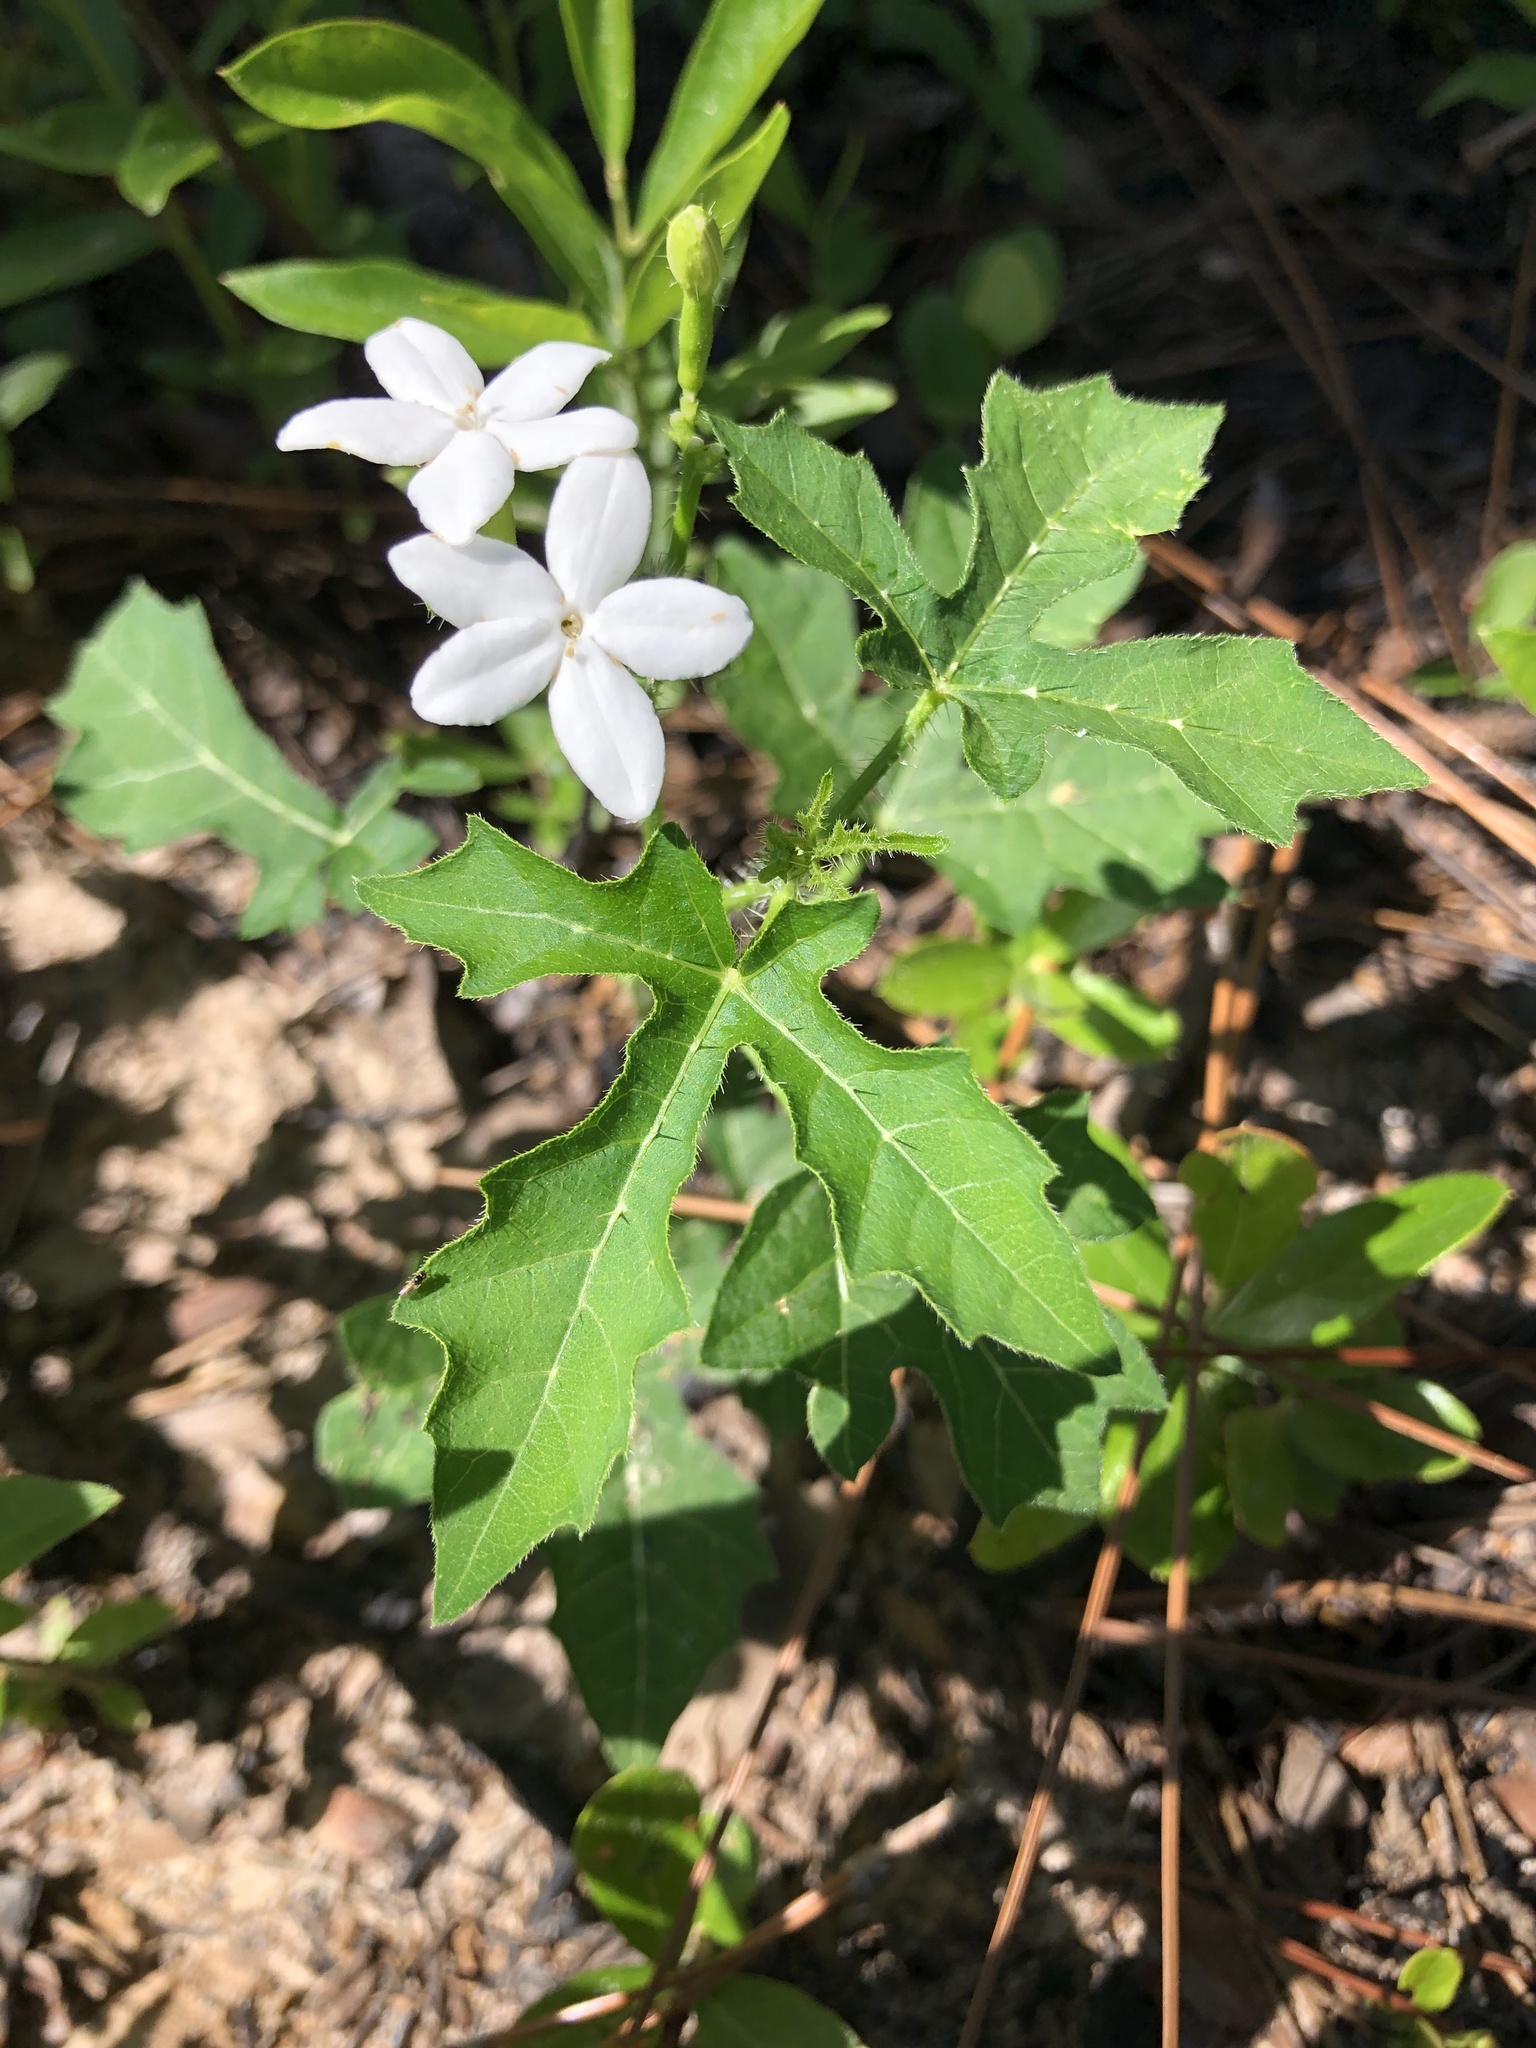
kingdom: Plantae
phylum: Tracheophyta
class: Magnoliopsida
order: Malpighiales
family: Euphorbiaceae
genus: Cnidoscolus
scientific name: Cnidoscolus stimulosus
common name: Bull-nettle
